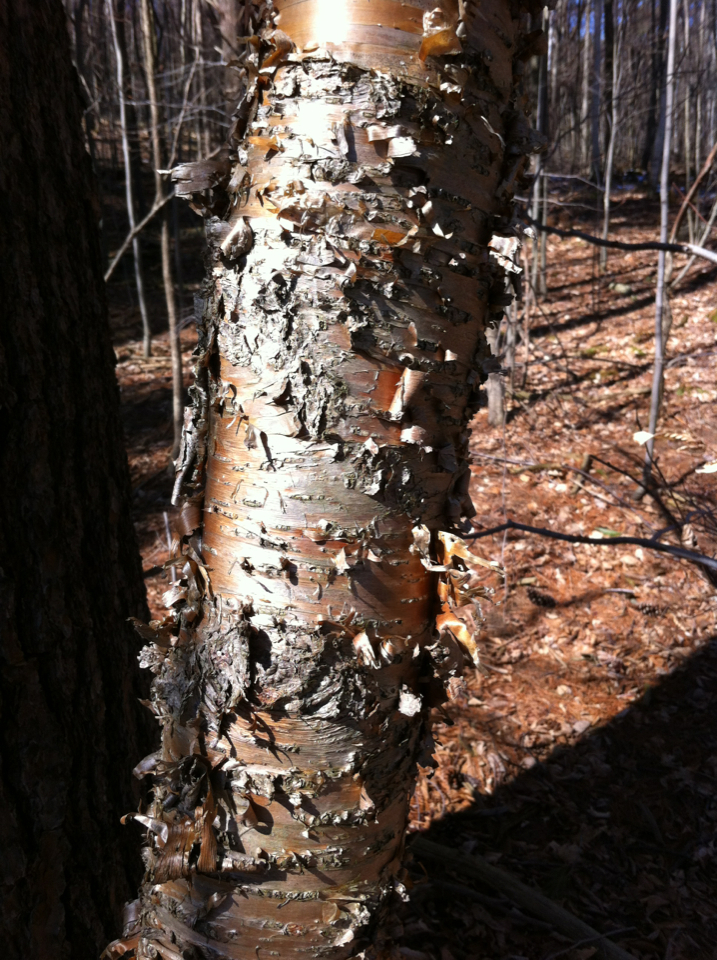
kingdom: Plantae
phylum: Tracheophyta
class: Magnoliopsida
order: Fagales
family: Betulaceae
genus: Betula
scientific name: Betula alleghaniensis
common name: Yellow birch
